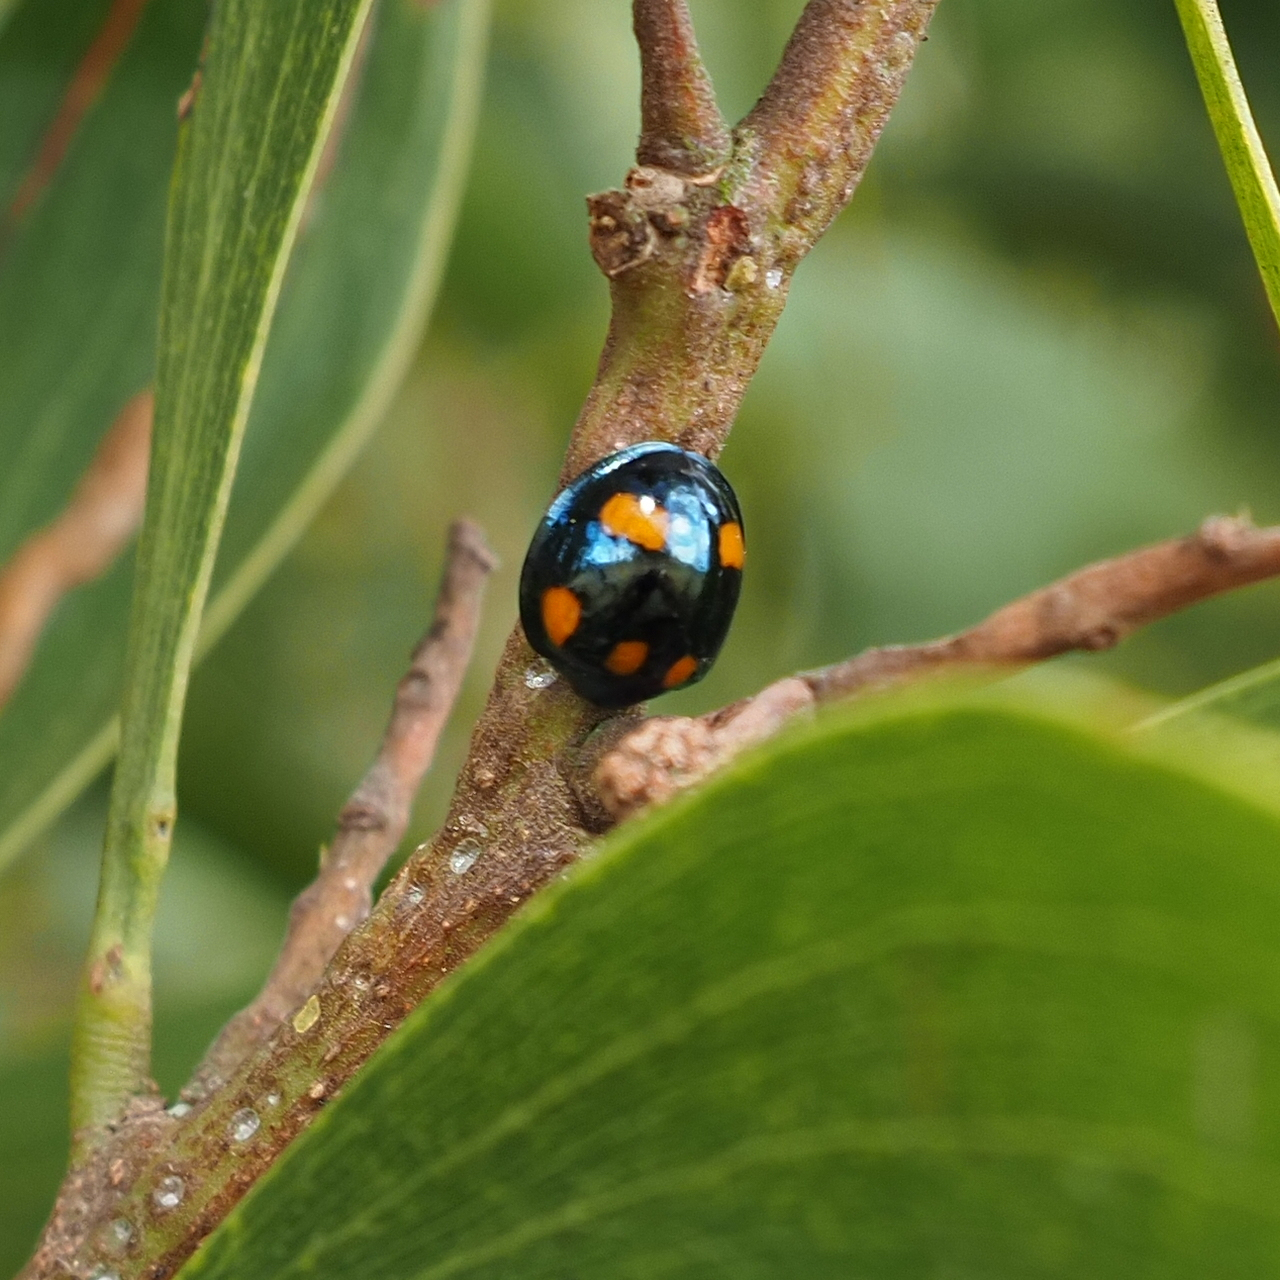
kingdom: Animalia
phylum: Arthropoda
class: Insecta
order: Coleoptera
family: Coccinellidae
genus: Orcus
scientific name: Orcus australasiae
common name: Lady beetle
